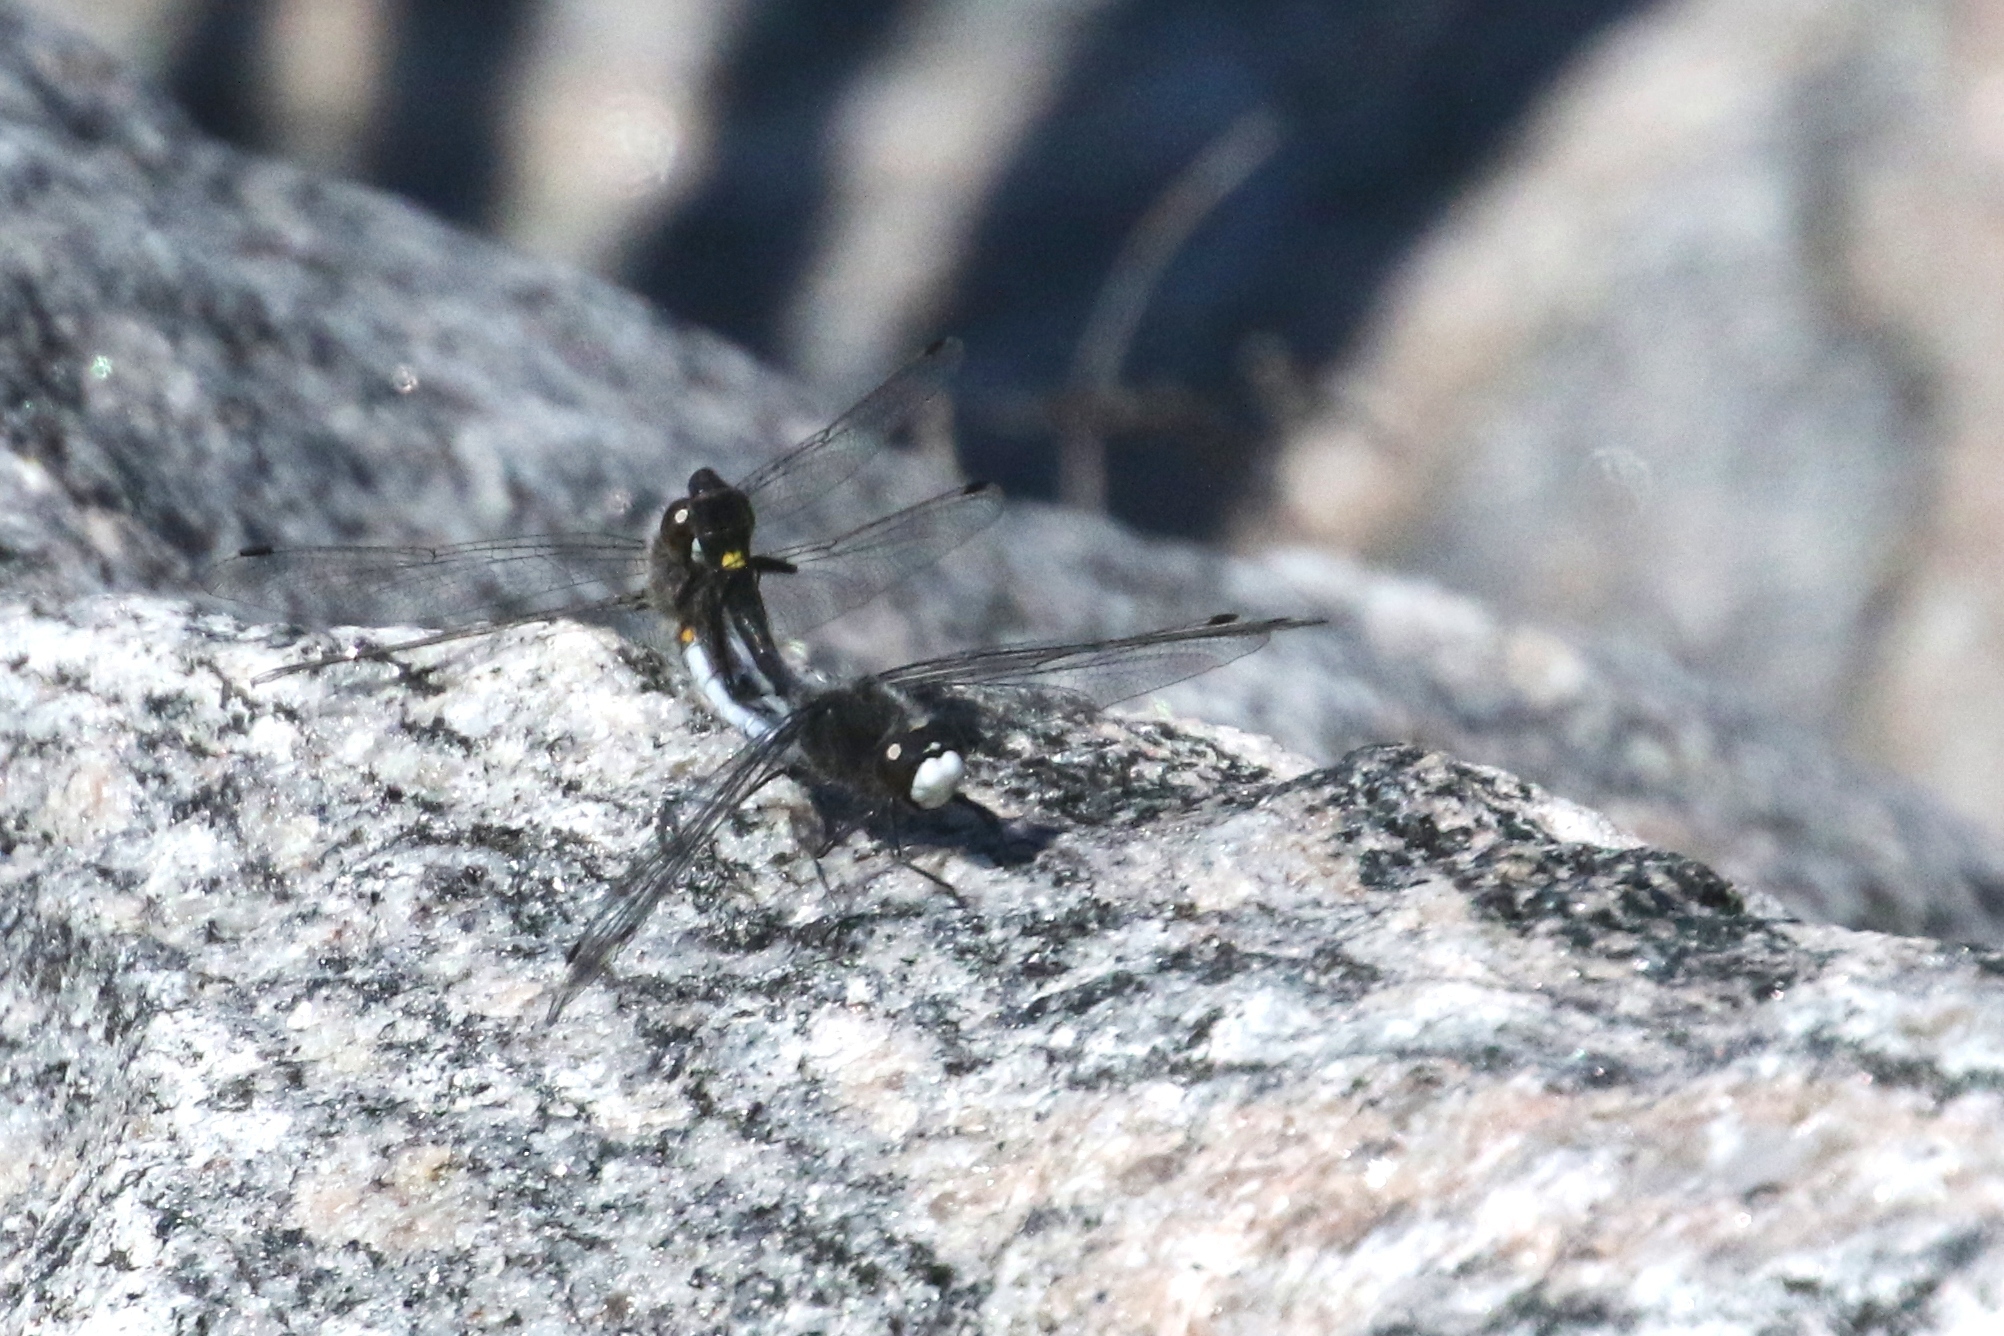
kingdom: Animalia
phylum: Arthropoda
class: Insecta
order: Odonata
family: Libellulidae
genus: Leucorrhinia
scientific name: Leucorrhinia intacta
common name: Dot-tailed whiteface
